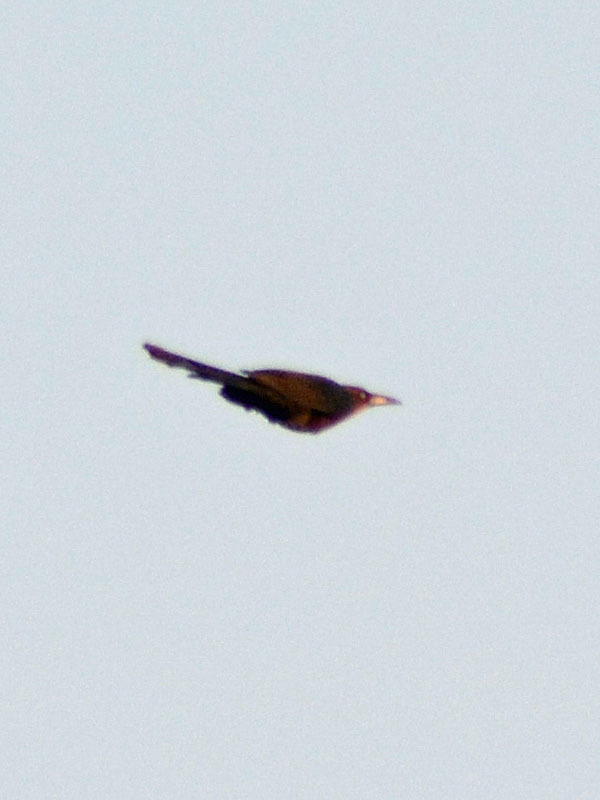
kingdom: Animalia
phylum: Chordata
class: Aves
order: Passeriformes
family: Icteridae
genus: Quiscalus
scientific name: Quiscalus mexicanus
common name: Great-tailed grackle
